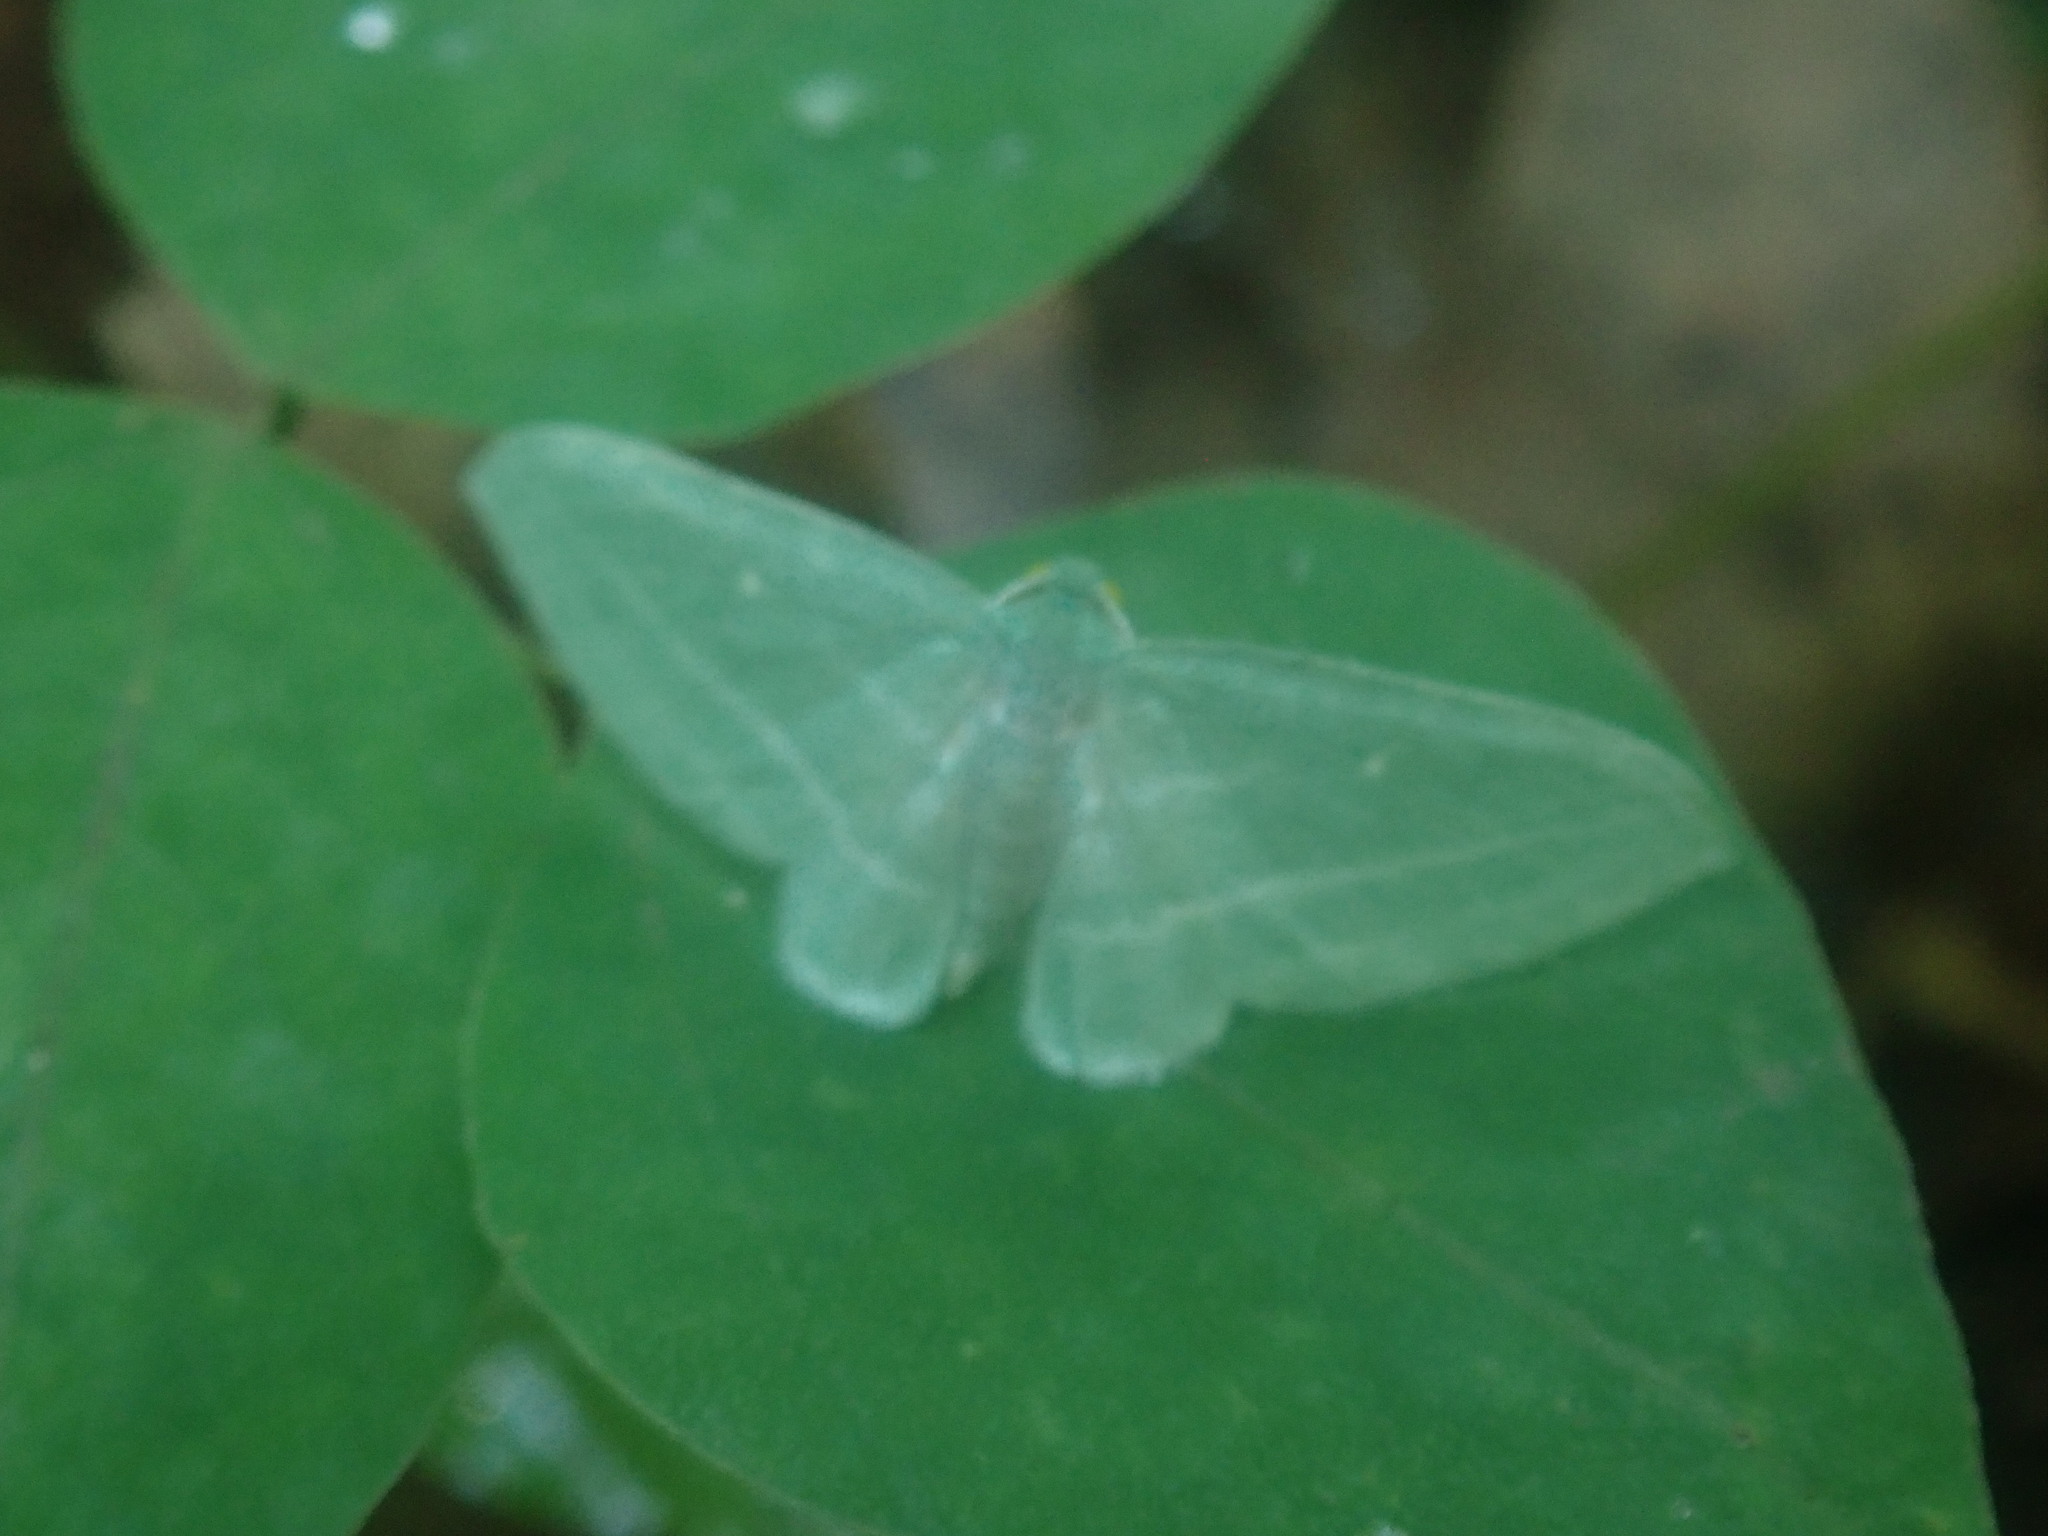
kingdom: Animalia
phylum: Arthropoda
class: Insecta
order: Lepidoptera
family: Geometridae
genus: Dyspteris
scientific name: Dyspteris abortivaria
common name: Bad-wing
